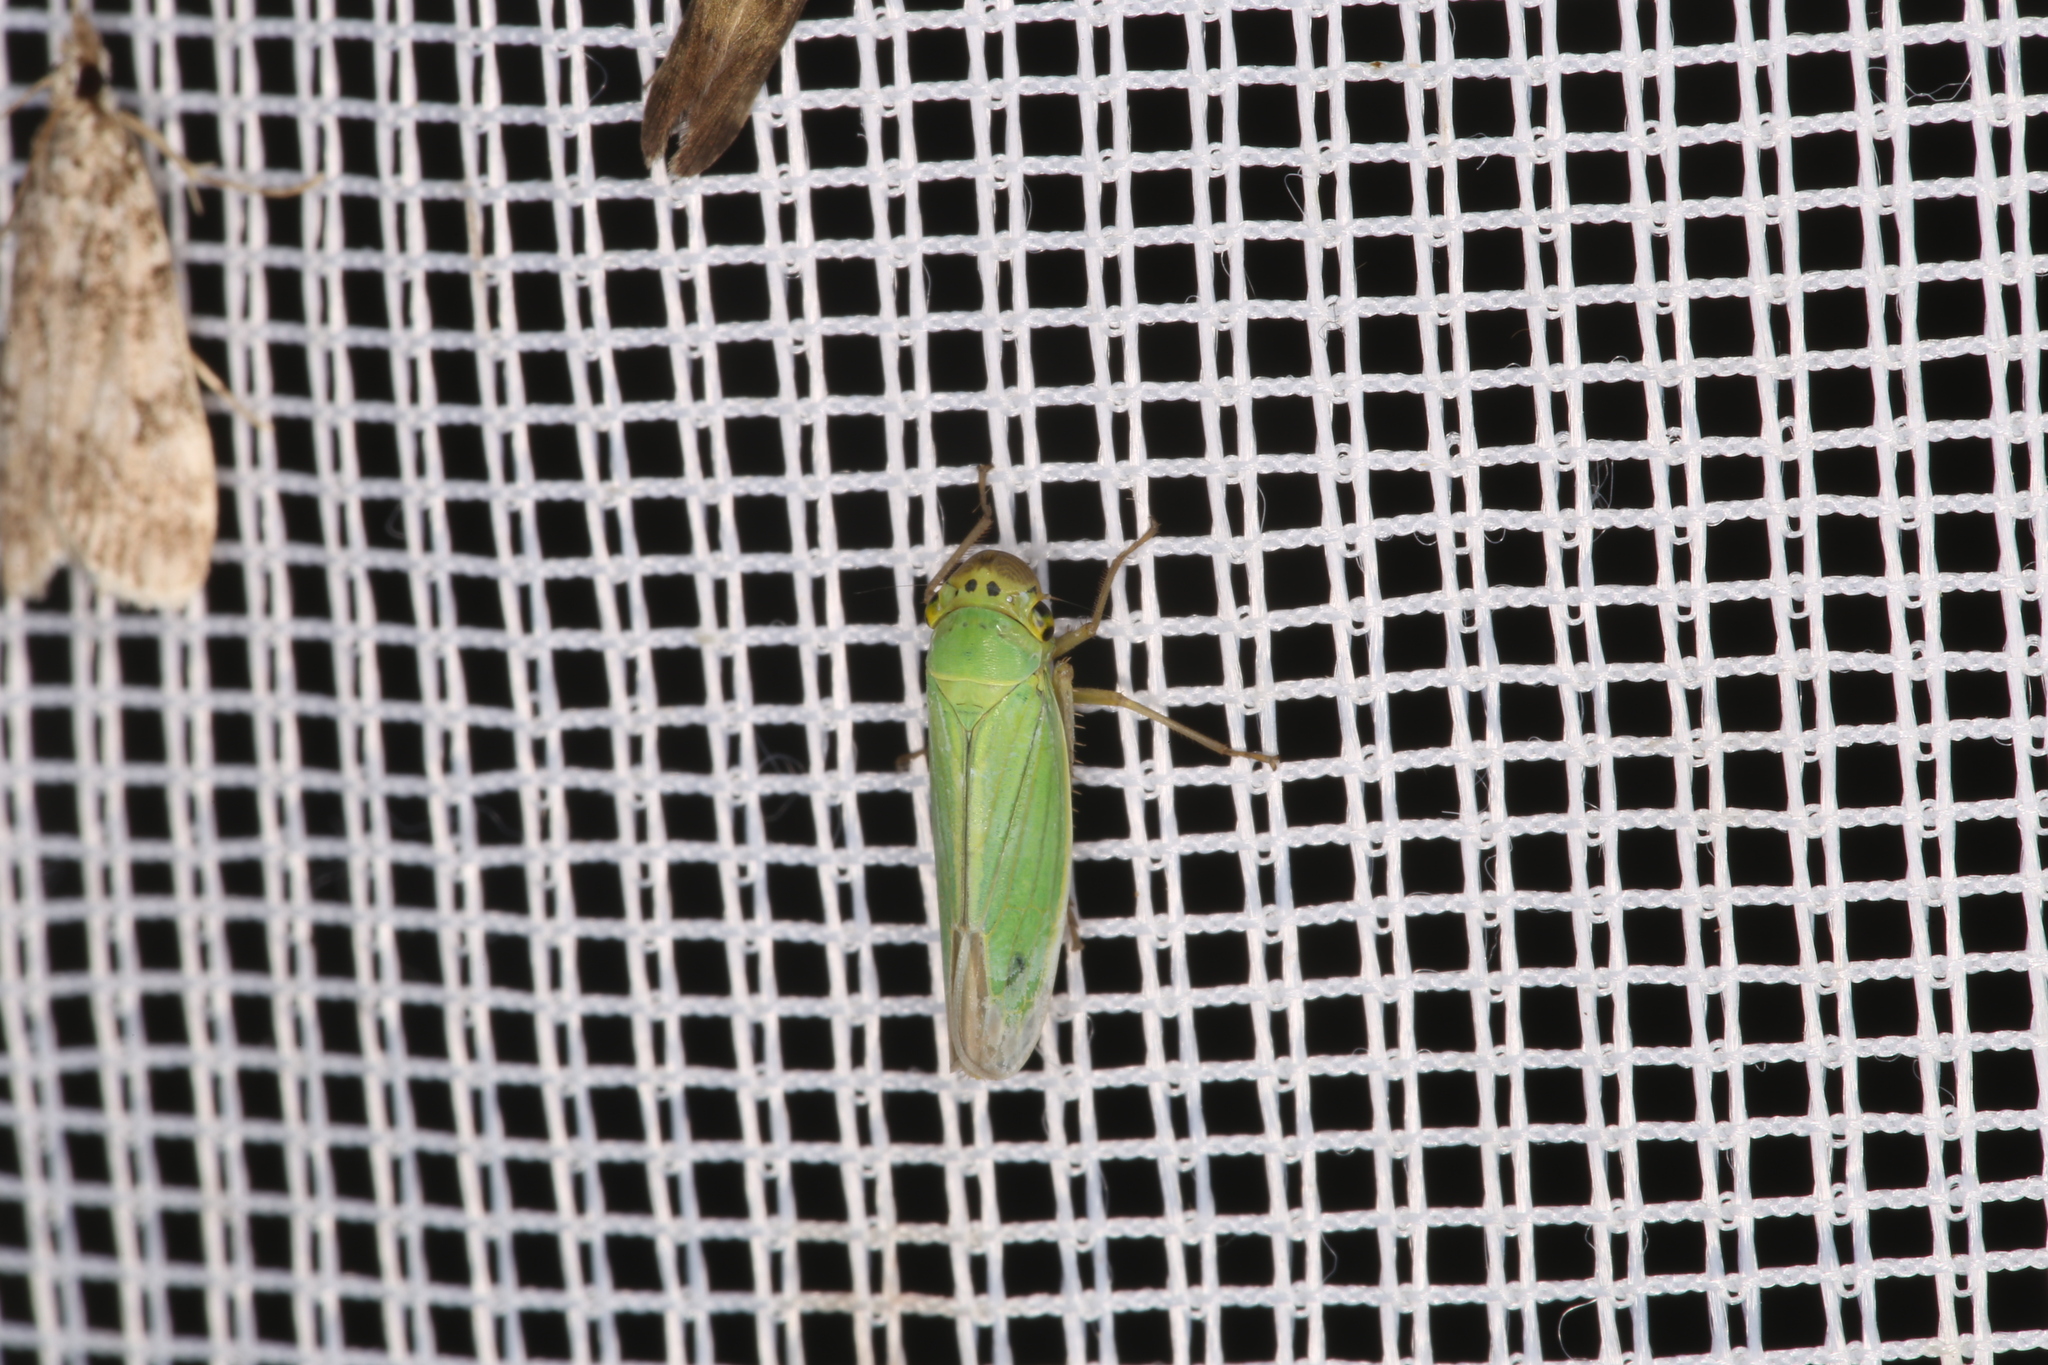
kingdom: Animalia
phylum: Arthropoda
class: Insecta
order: Hemiptera
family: Cicadellidae
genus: Cicadella
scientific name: Cicadella viridis
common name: Leafhopper
